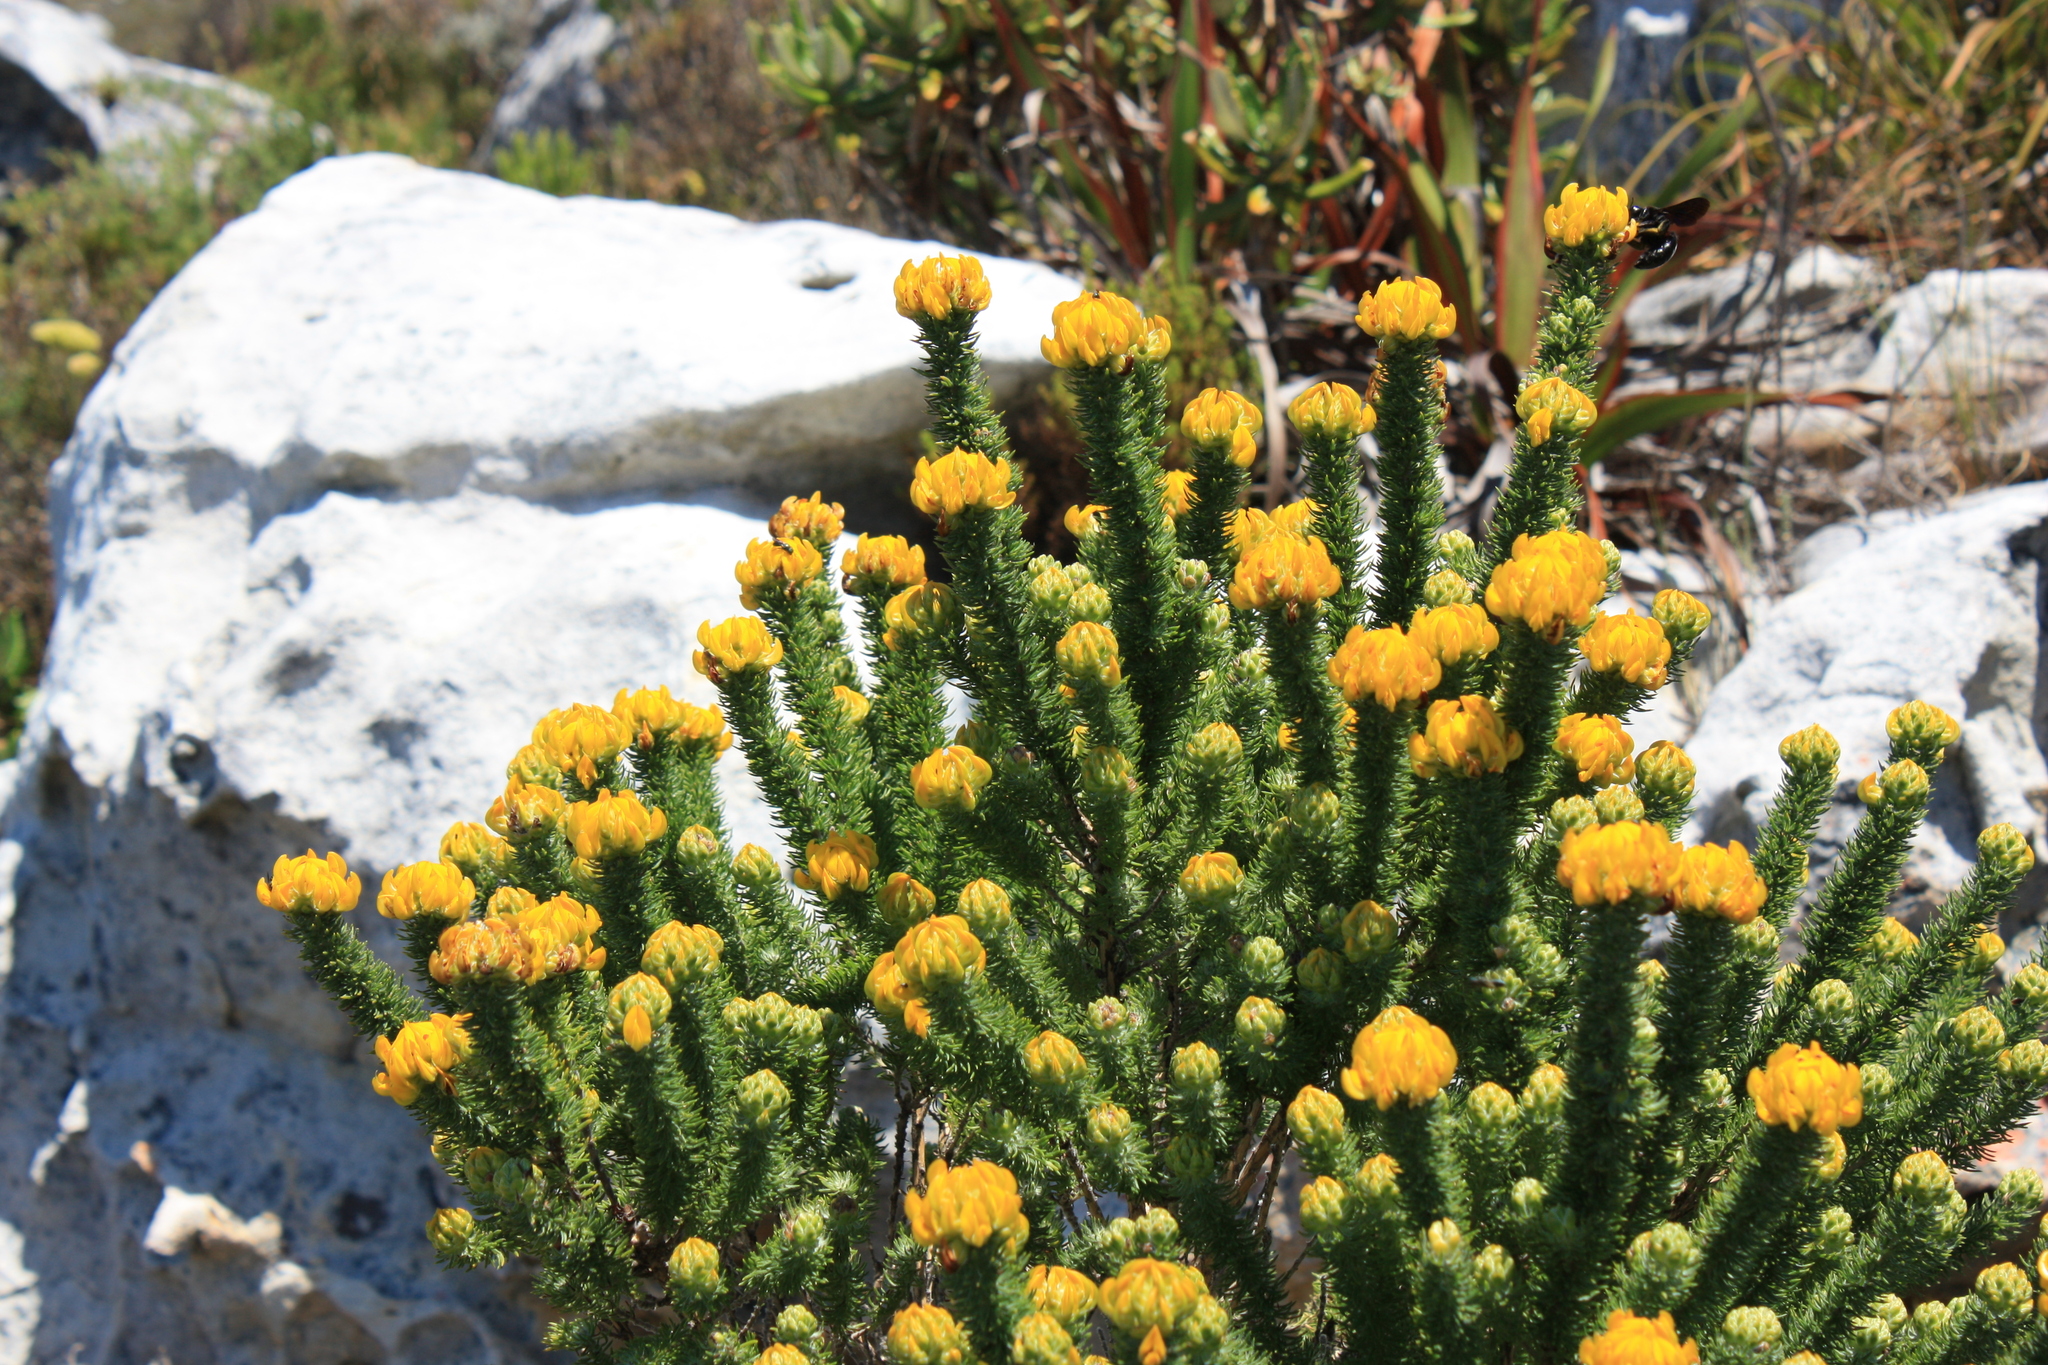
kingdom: Plantae
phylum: Tracheophyta
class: Magnoliopsida
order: Fabales
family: Fabaceae
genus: Aspalathus
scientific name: Aspalathus capitata
